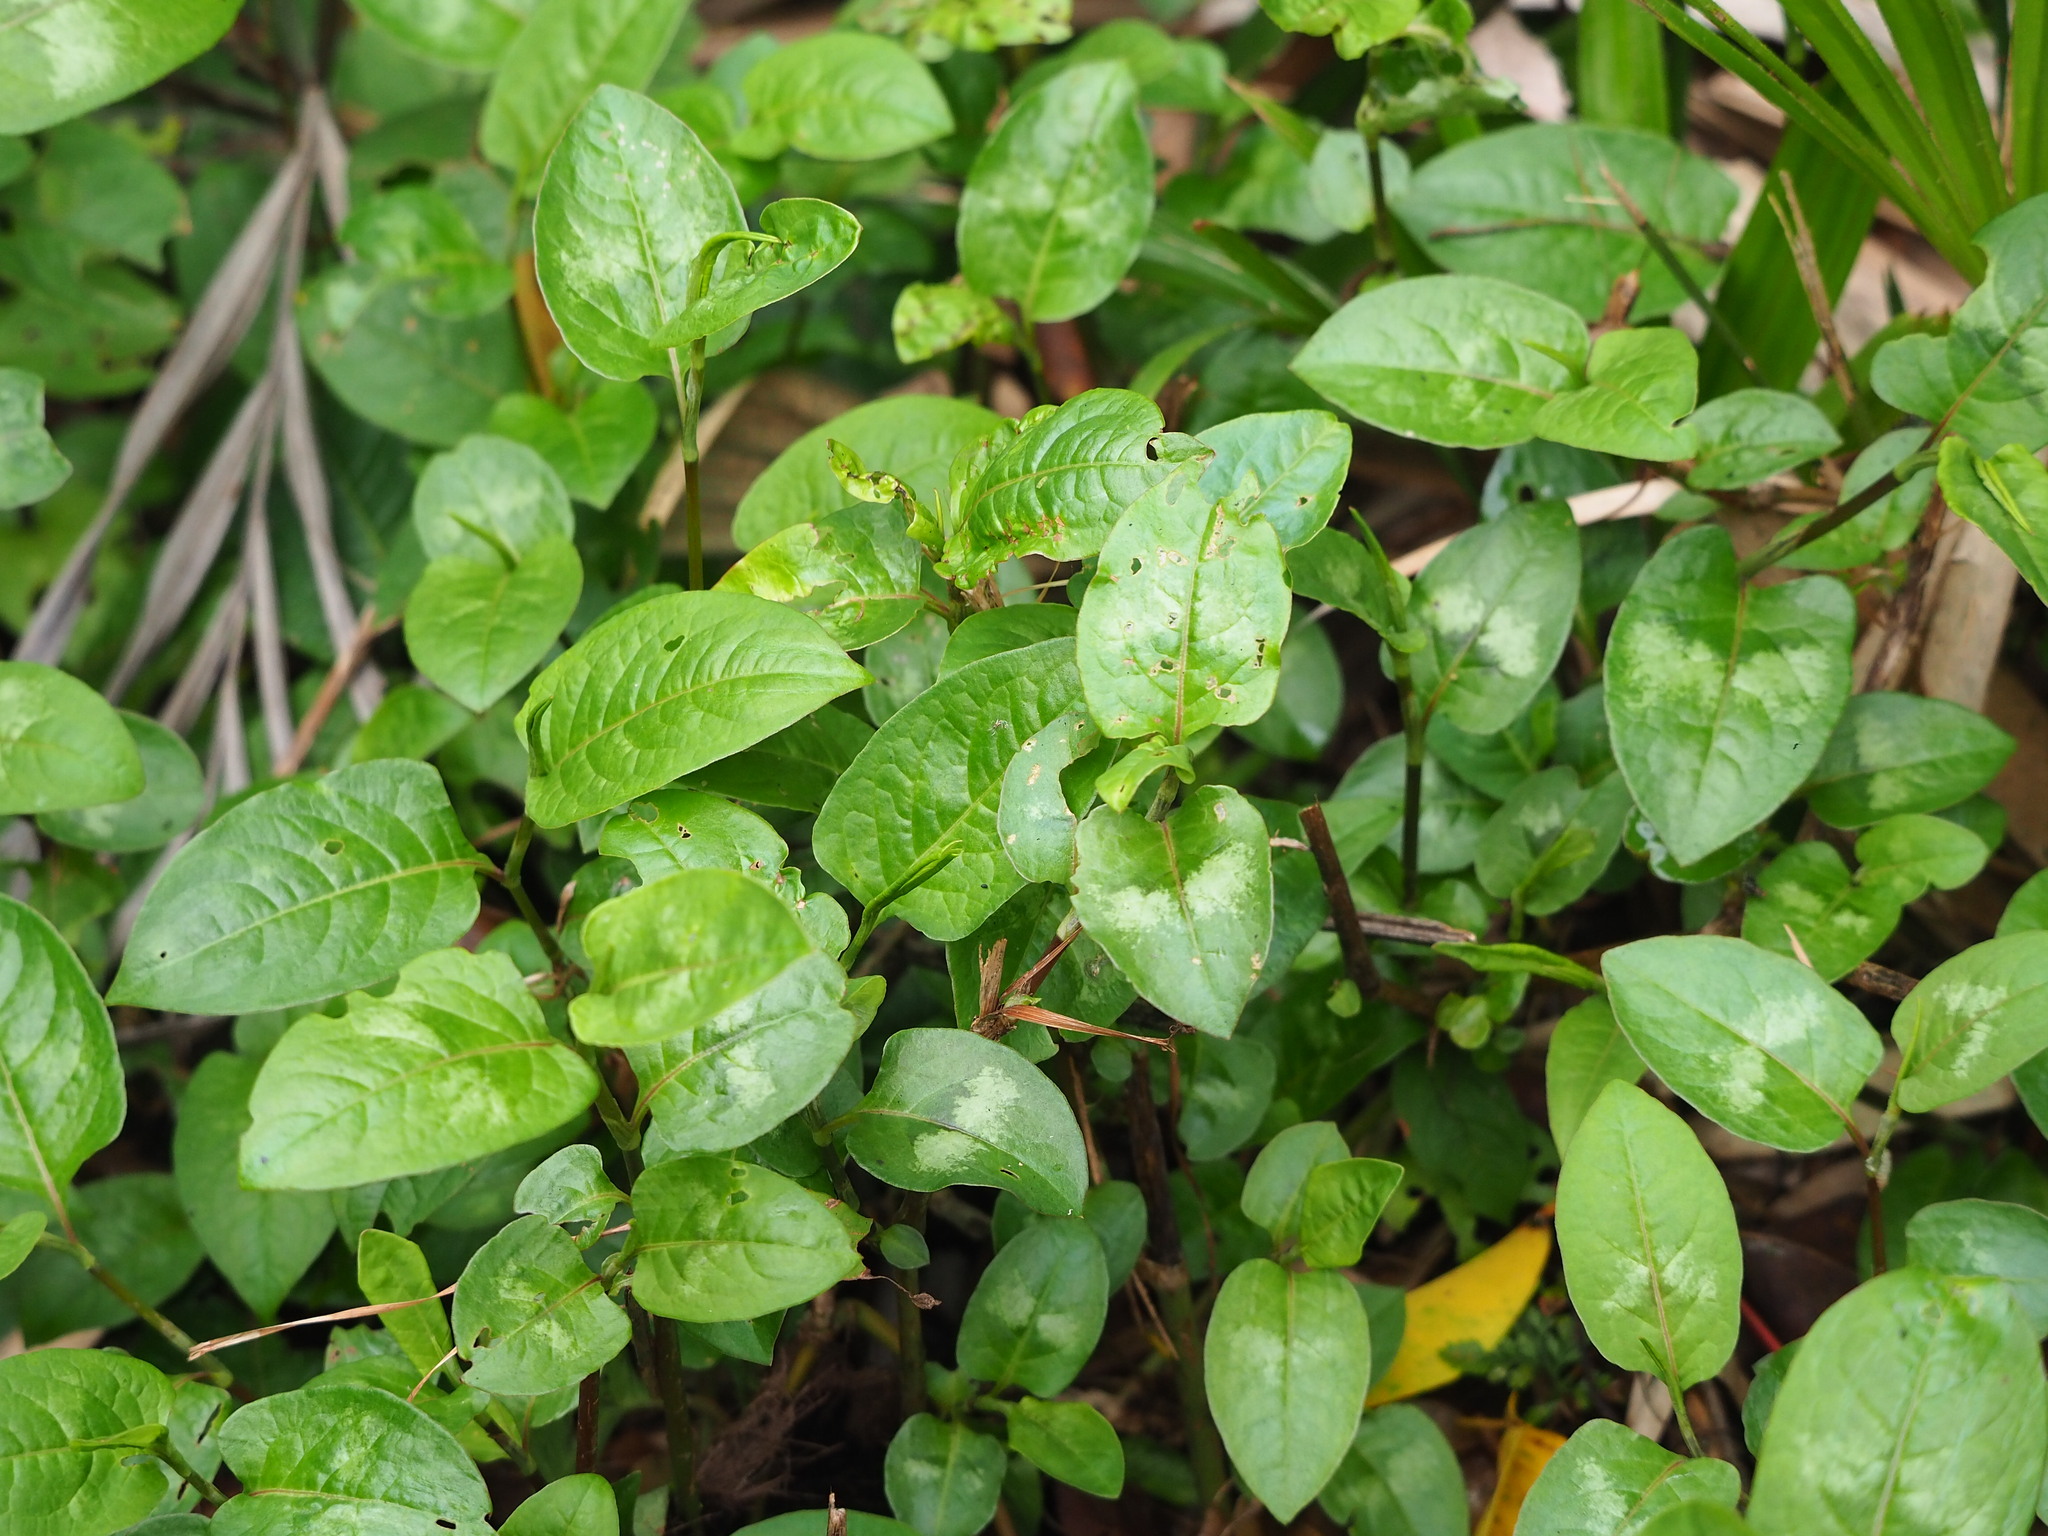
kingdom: Plantae
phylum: Tracheophyta
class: Magnoliopsida
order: Caryophyllales
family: Polygonaceae
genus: Persicaria
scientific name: Persicaria chinensis
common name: Chinese knotweed
